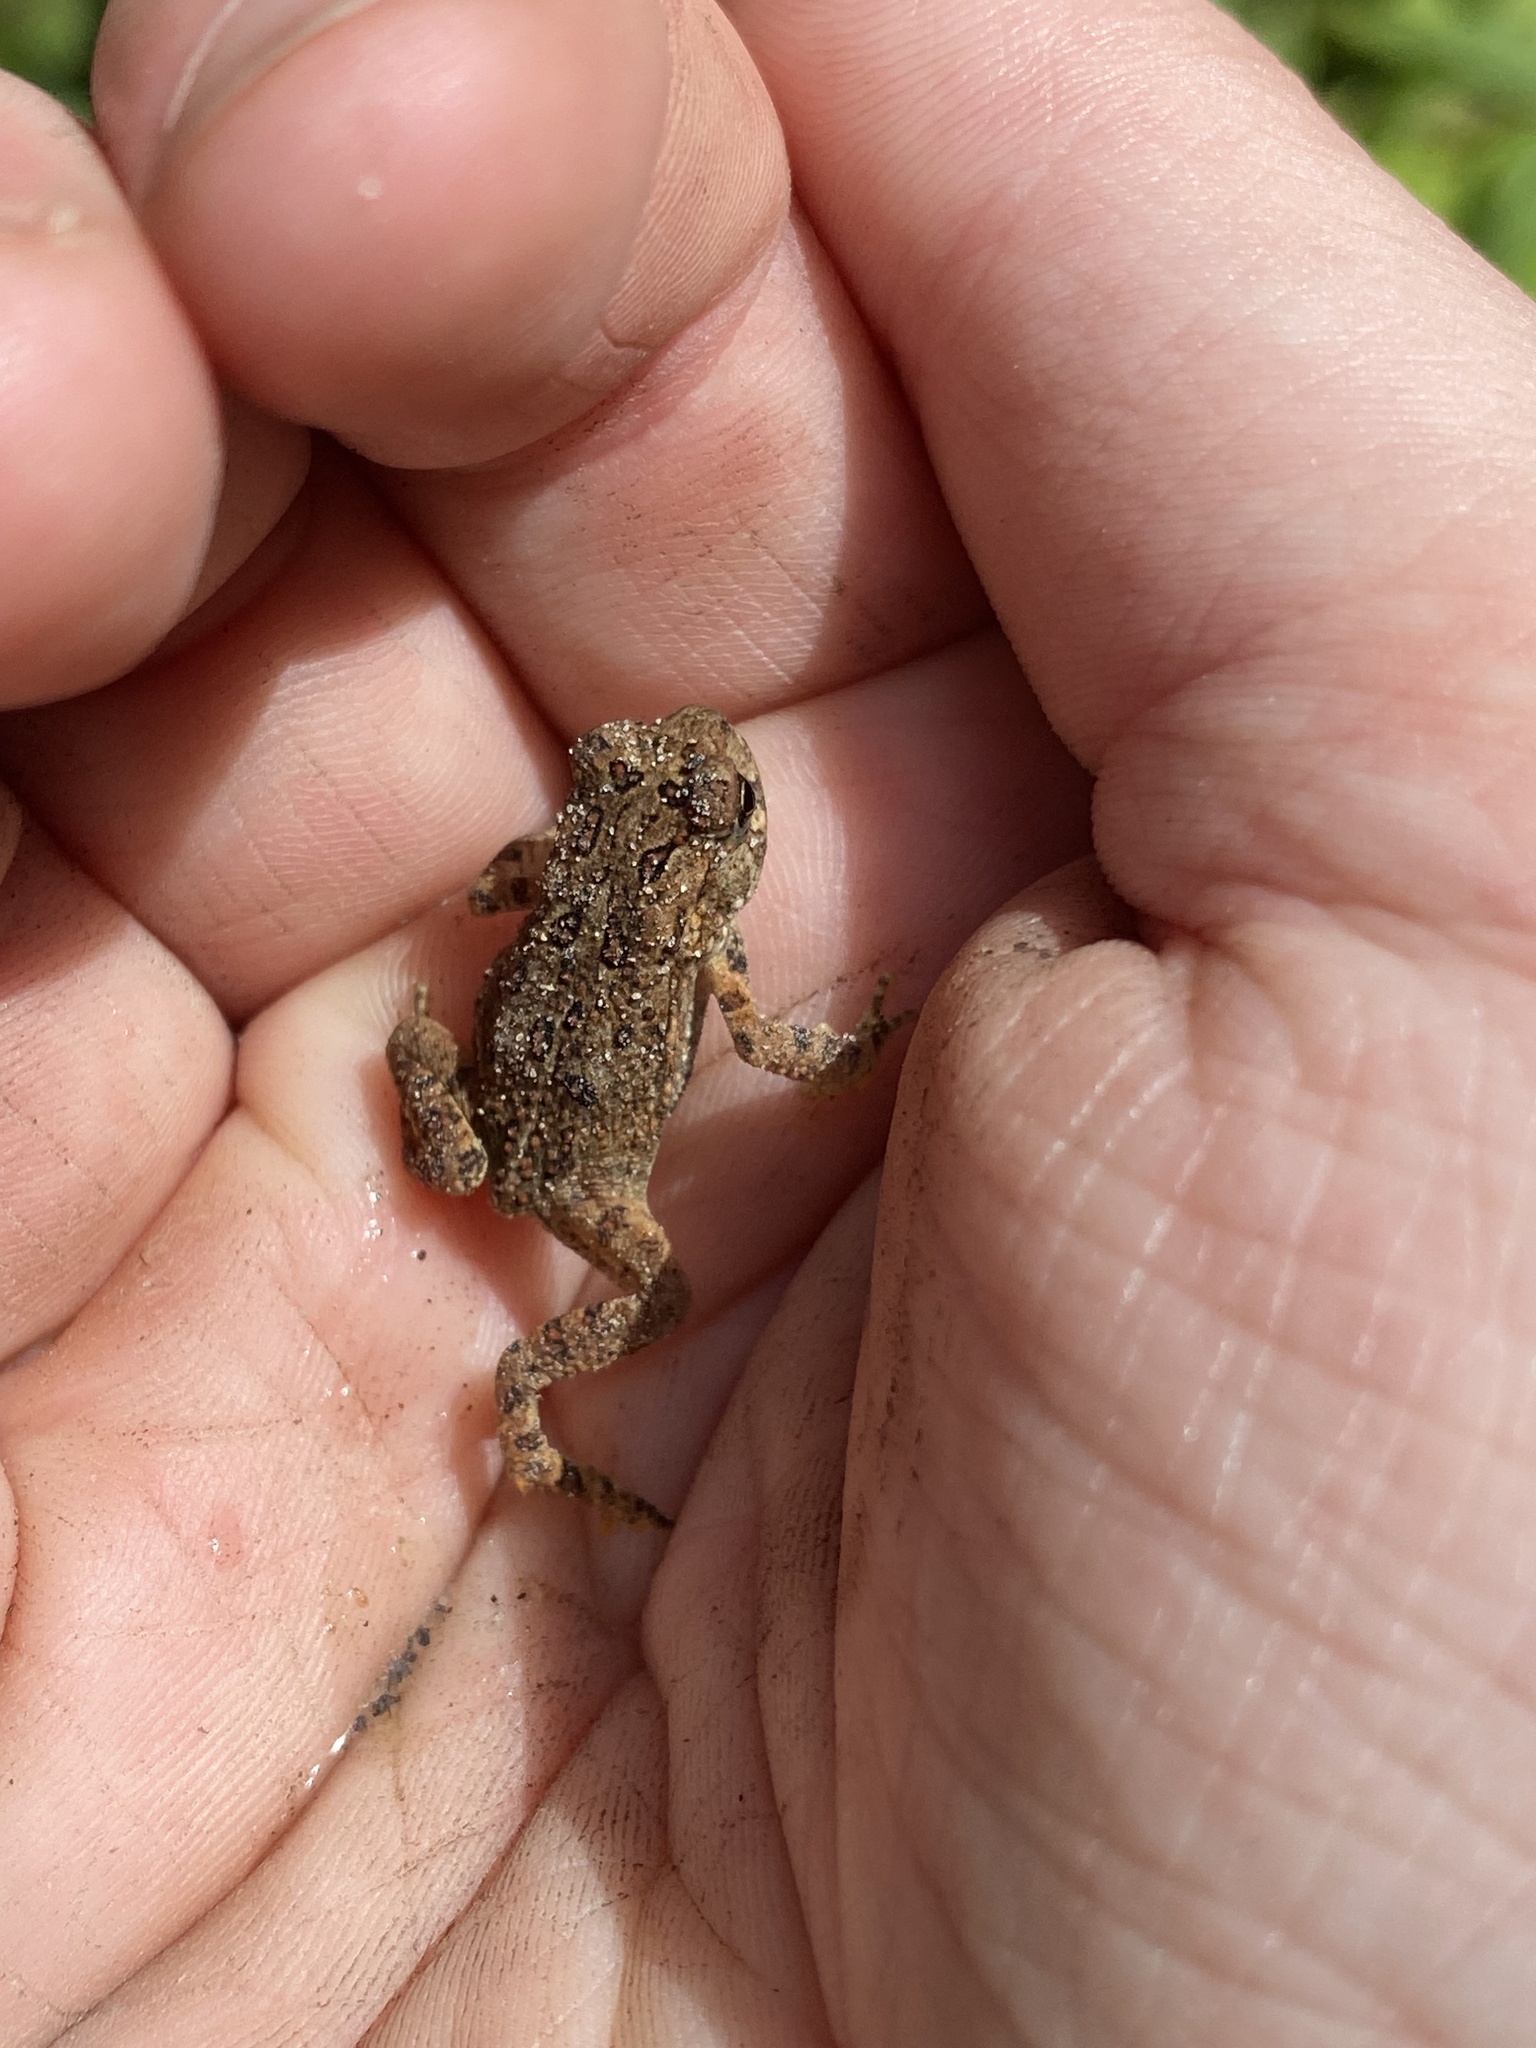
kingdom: Animalia
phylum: Chordata
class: Amphibia
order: Anura
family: Bufonidae
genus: Anaxyrus
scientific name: Anaxyrus americanus
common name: American toad
